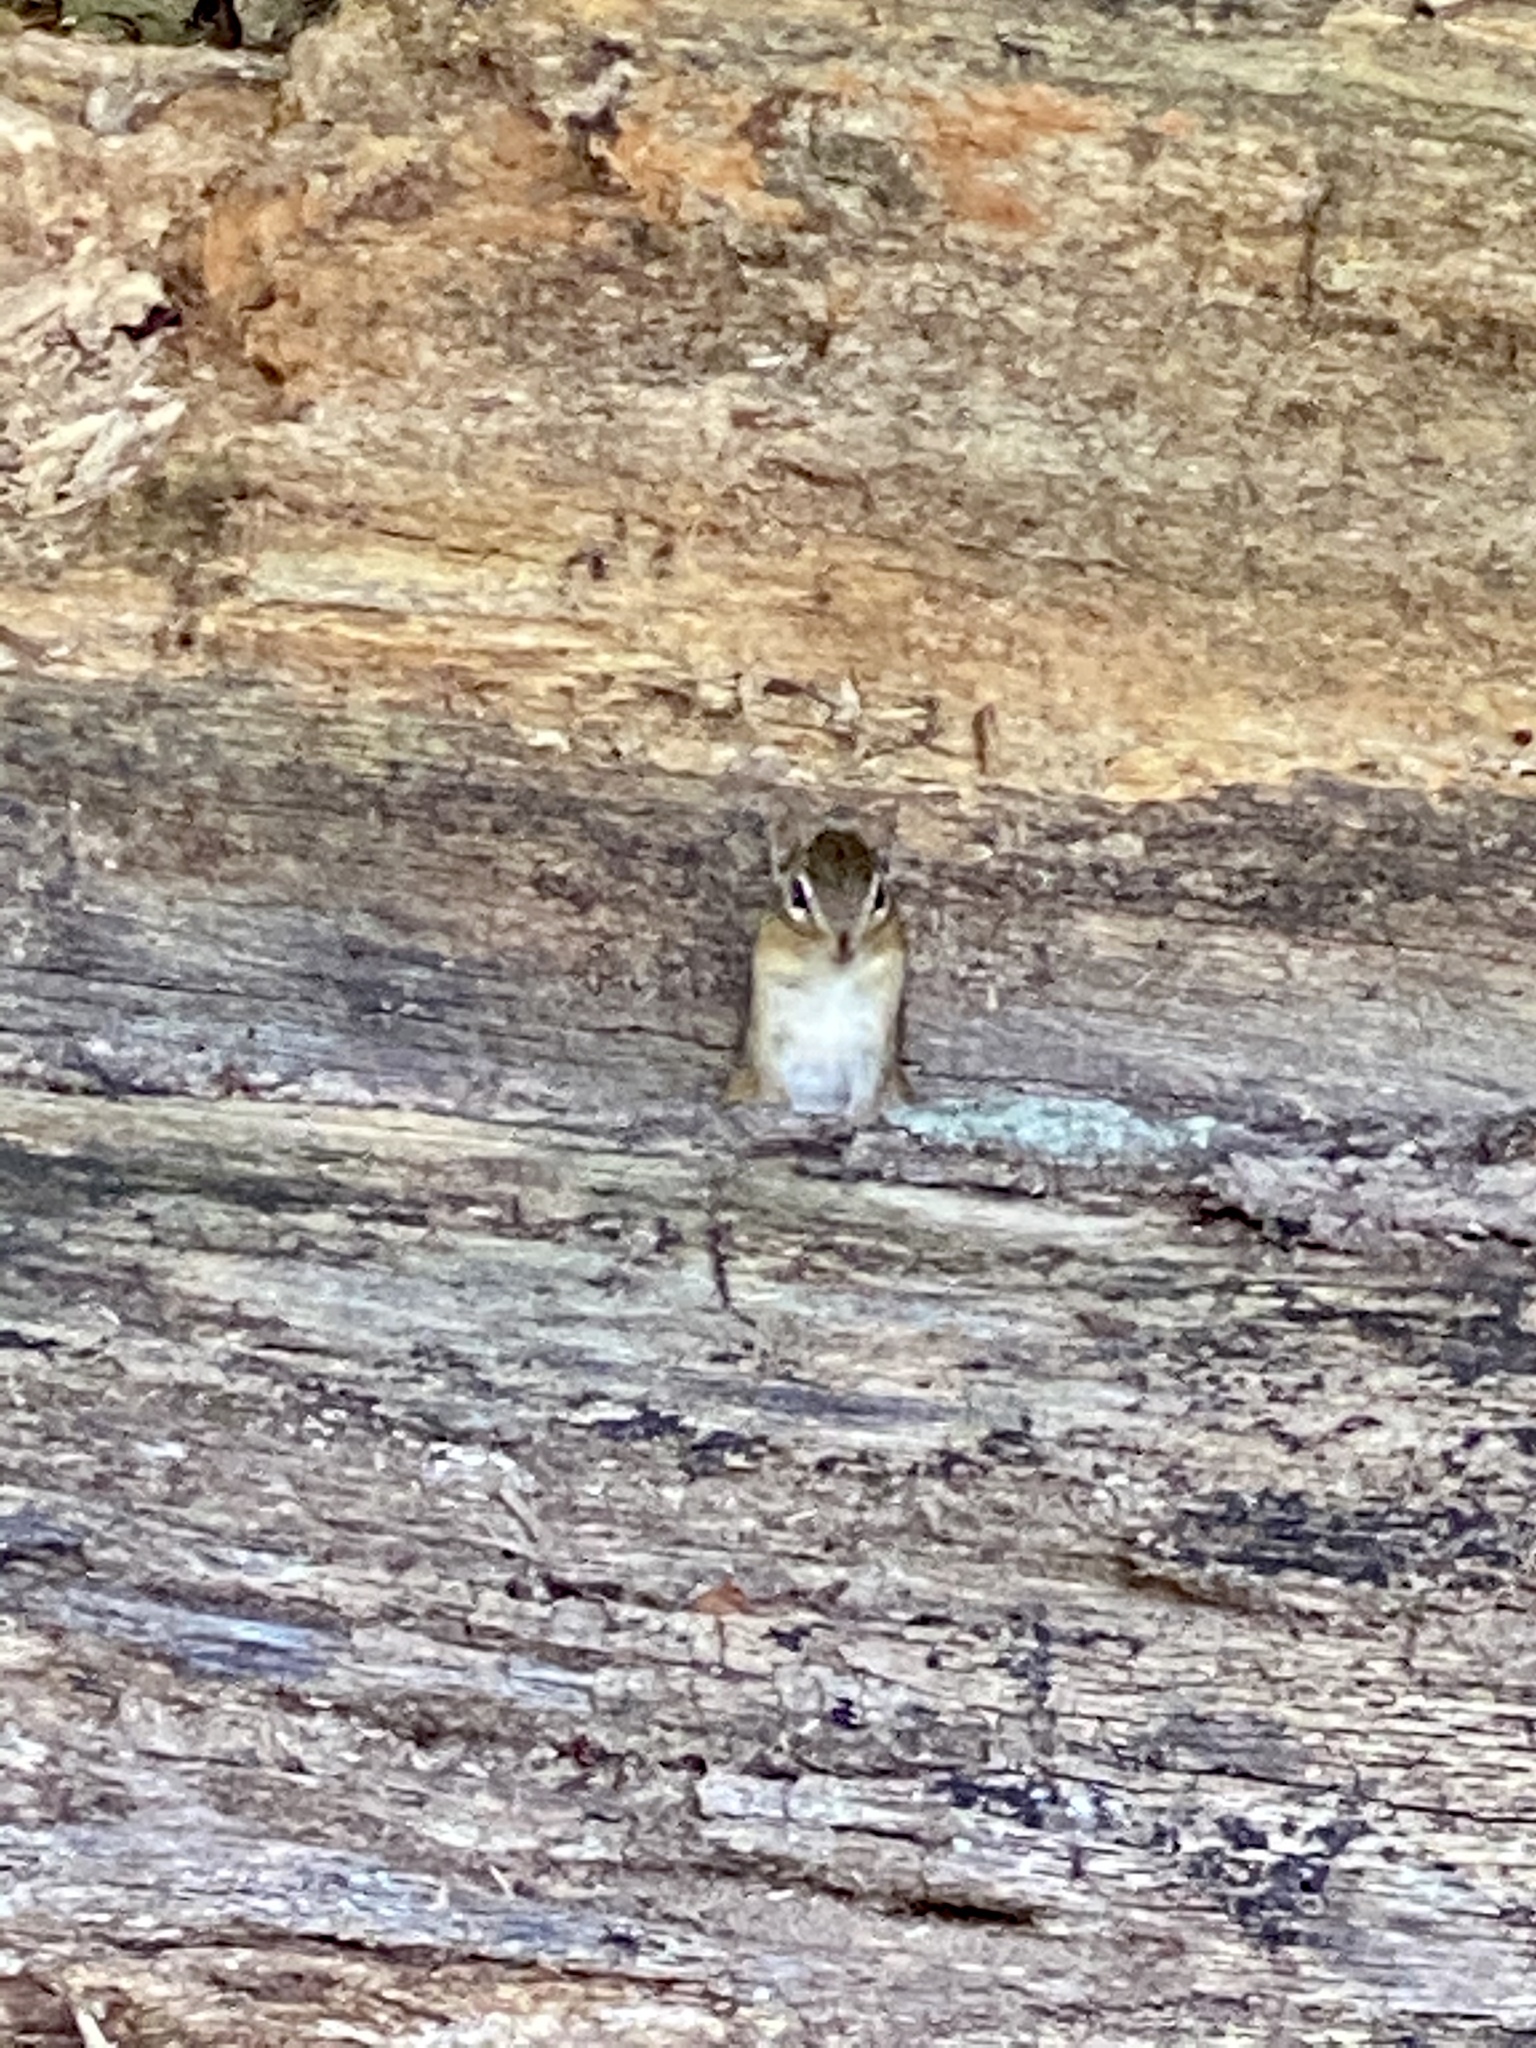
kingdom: Animalia
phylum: Chordata
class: Mammalia
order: Rodentia
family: Sciuridae
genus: Tamias
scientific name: Tamias striatus
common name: Eastern chipmunk
